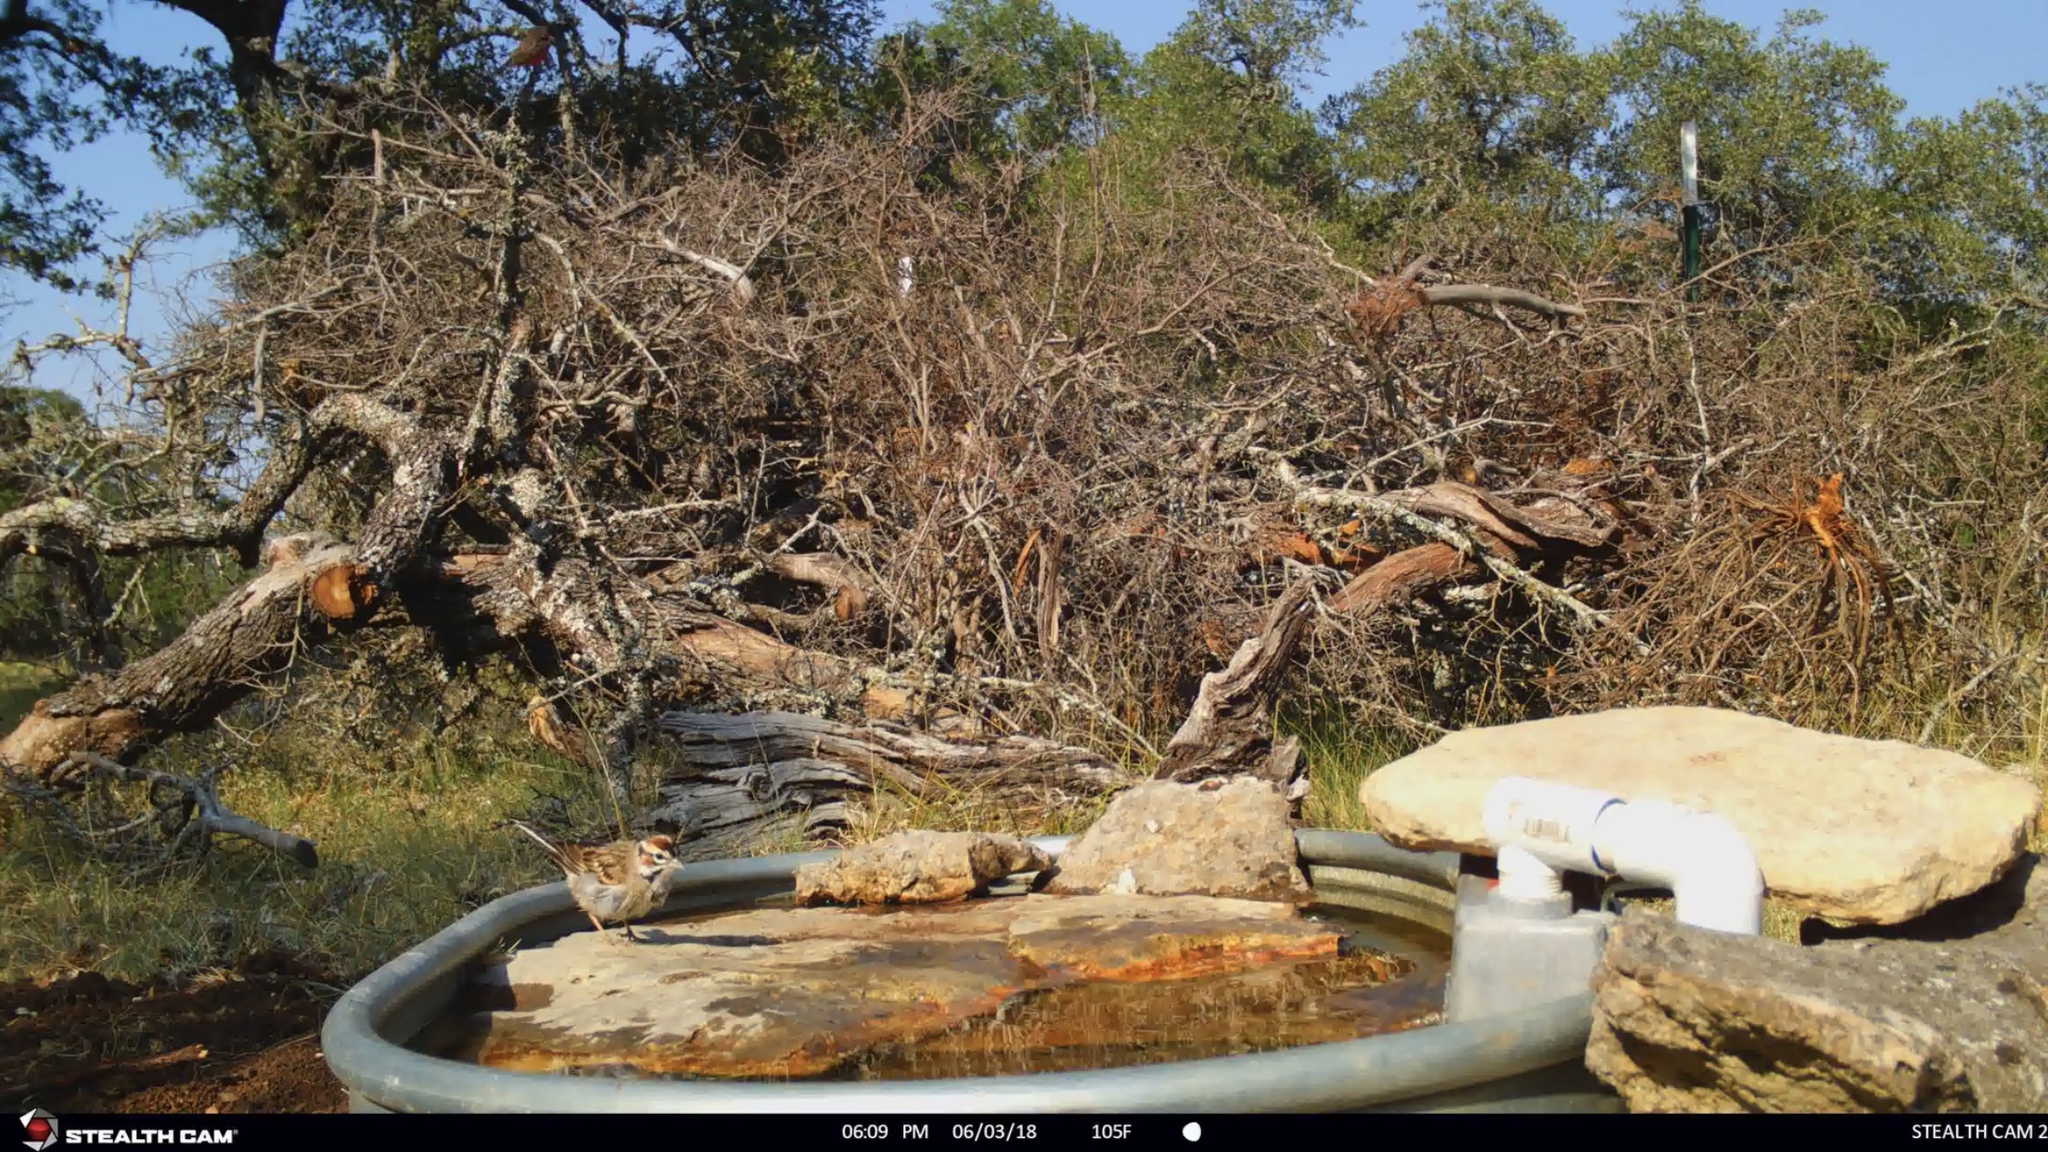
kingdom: Animalia
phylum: Chordata
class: Aves
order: Passeriformes
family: Passerellidae
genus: Chondestes
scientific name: Chondestes grammacus
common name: Lark sparrow
